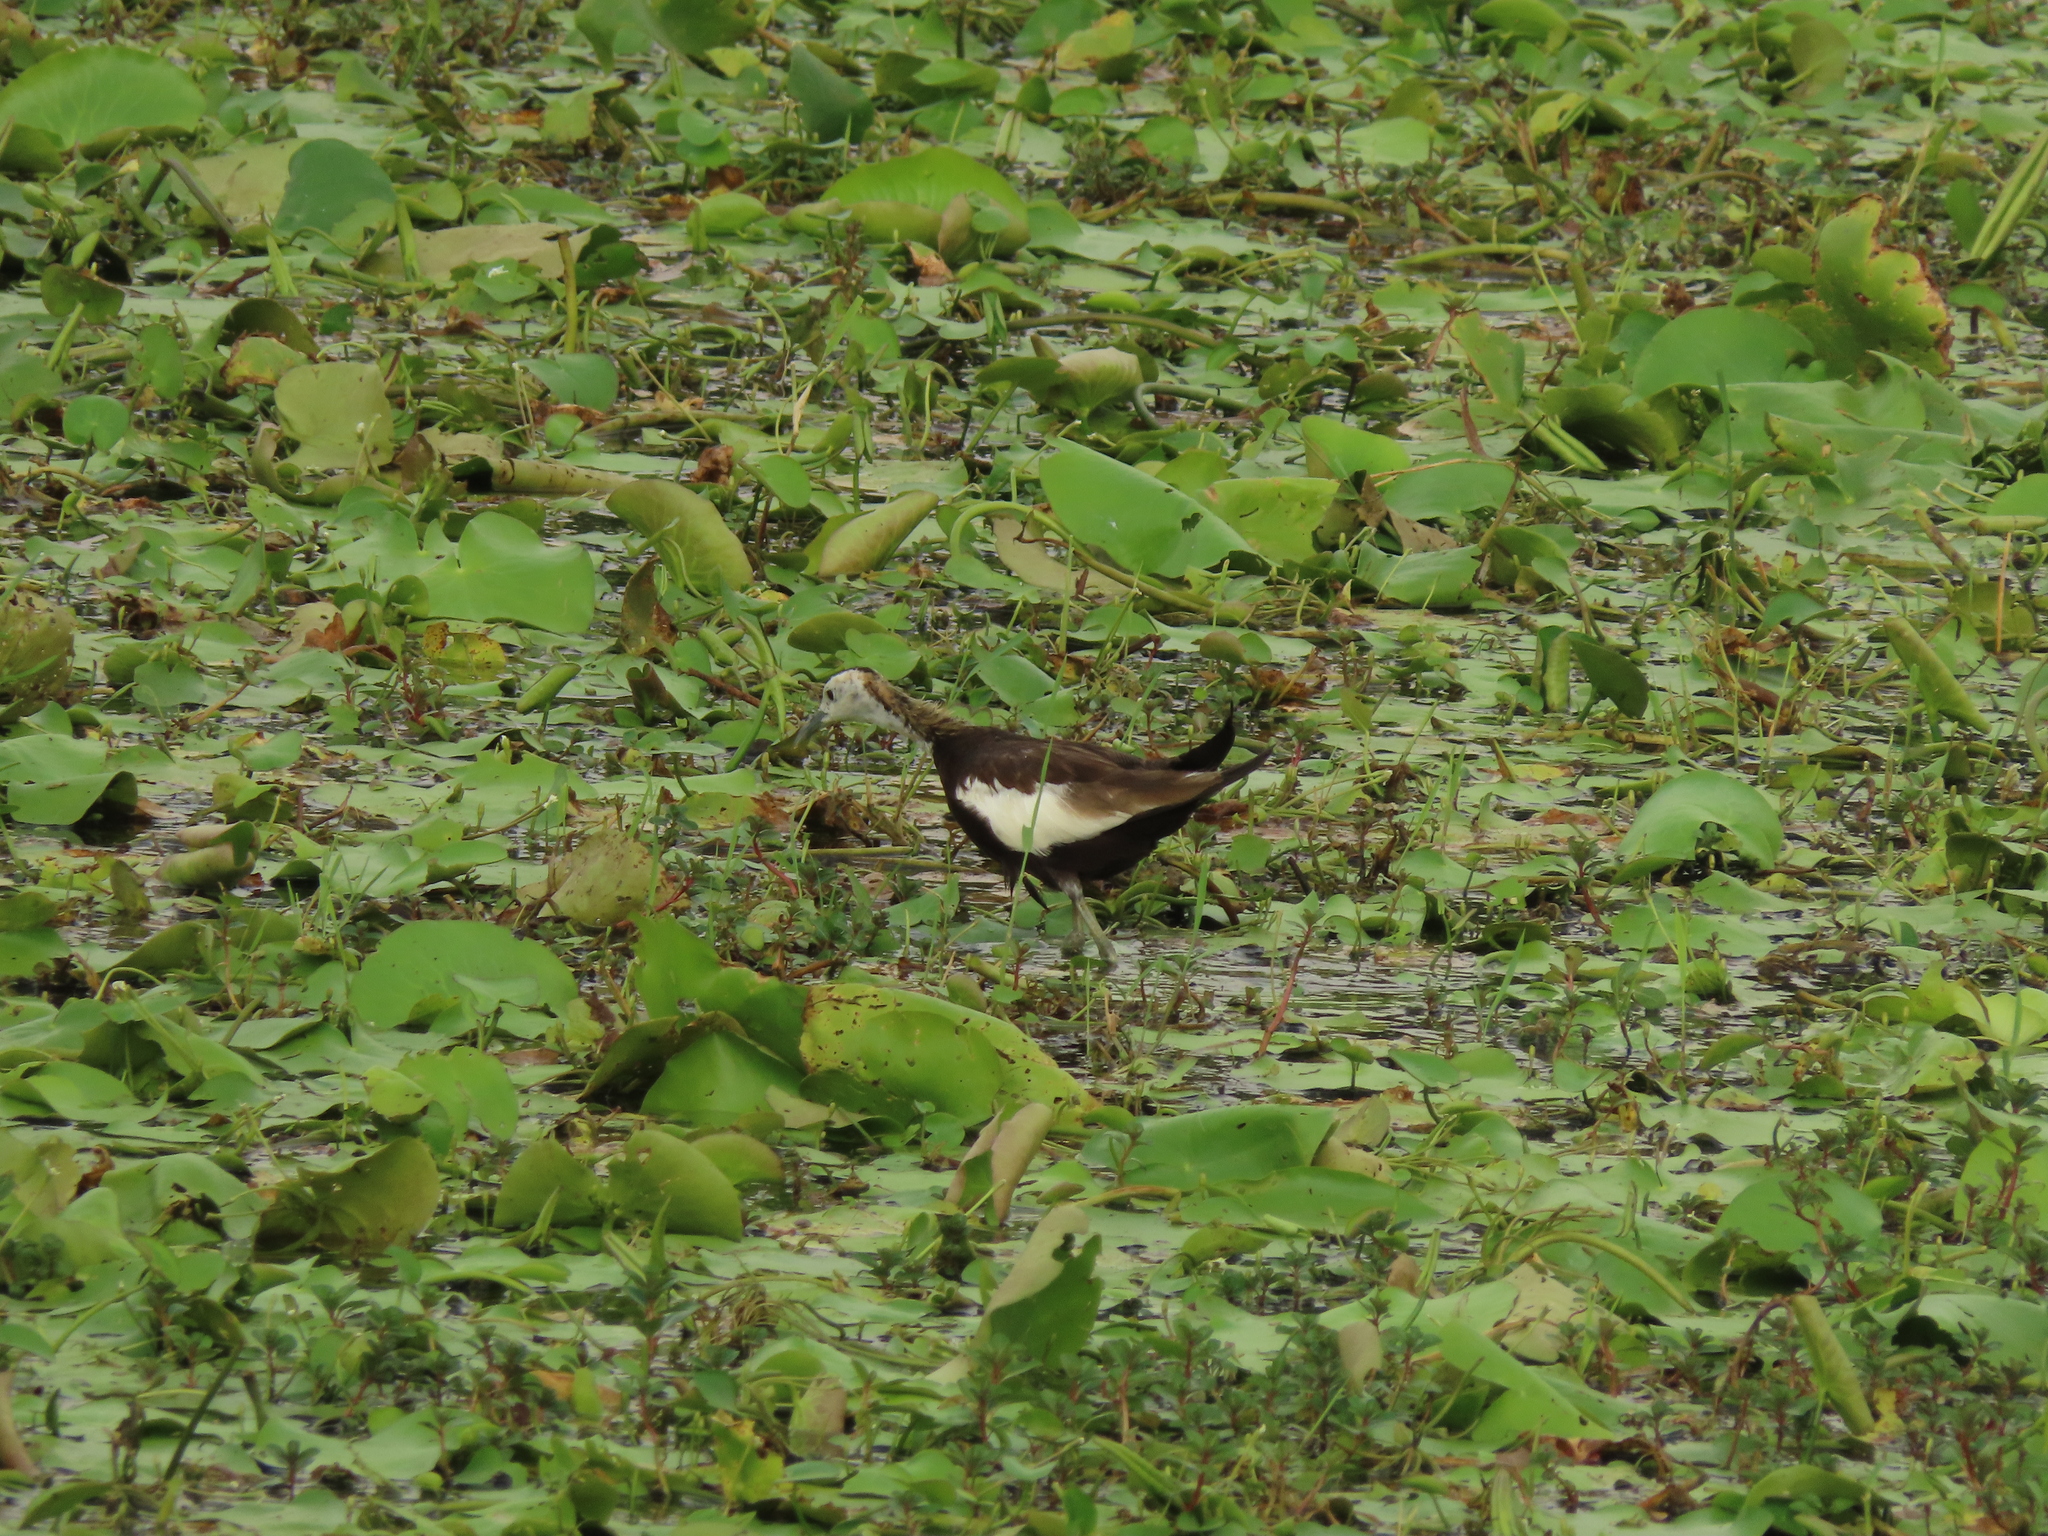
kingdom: Animalia
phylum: Chordata
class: Aves
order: Charadriiformes
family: Jacanidae
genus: Hydrophasianus
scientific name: Hydrophasianus chirurgus
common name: Pheasant-tailed jacana
